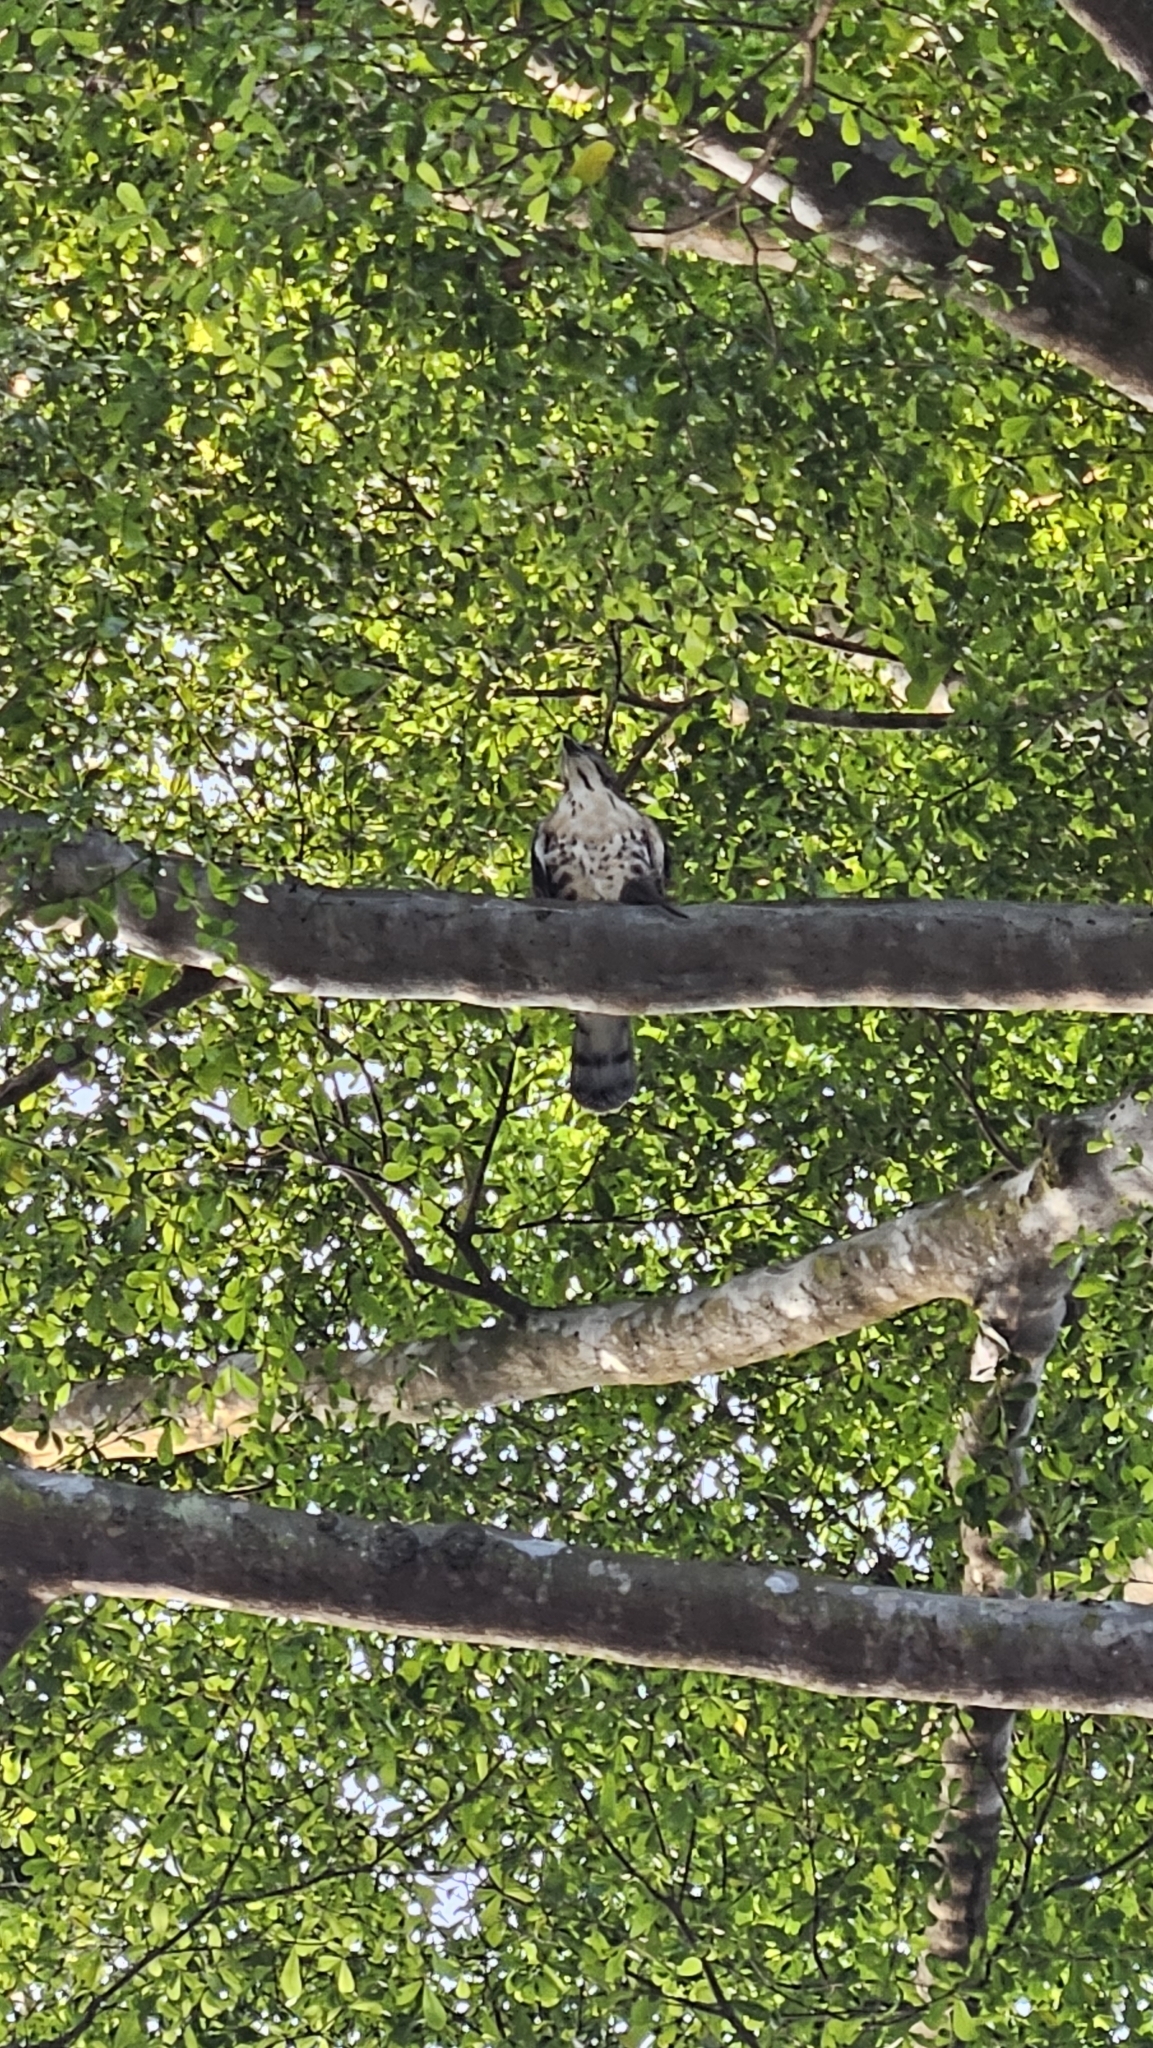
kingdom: Animalia
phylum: Chordata
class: Aves
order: Accipitriformes
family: Accipitridae
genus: Accipiter
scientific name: Accipiter trivirgatus
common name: Crested goshawk
